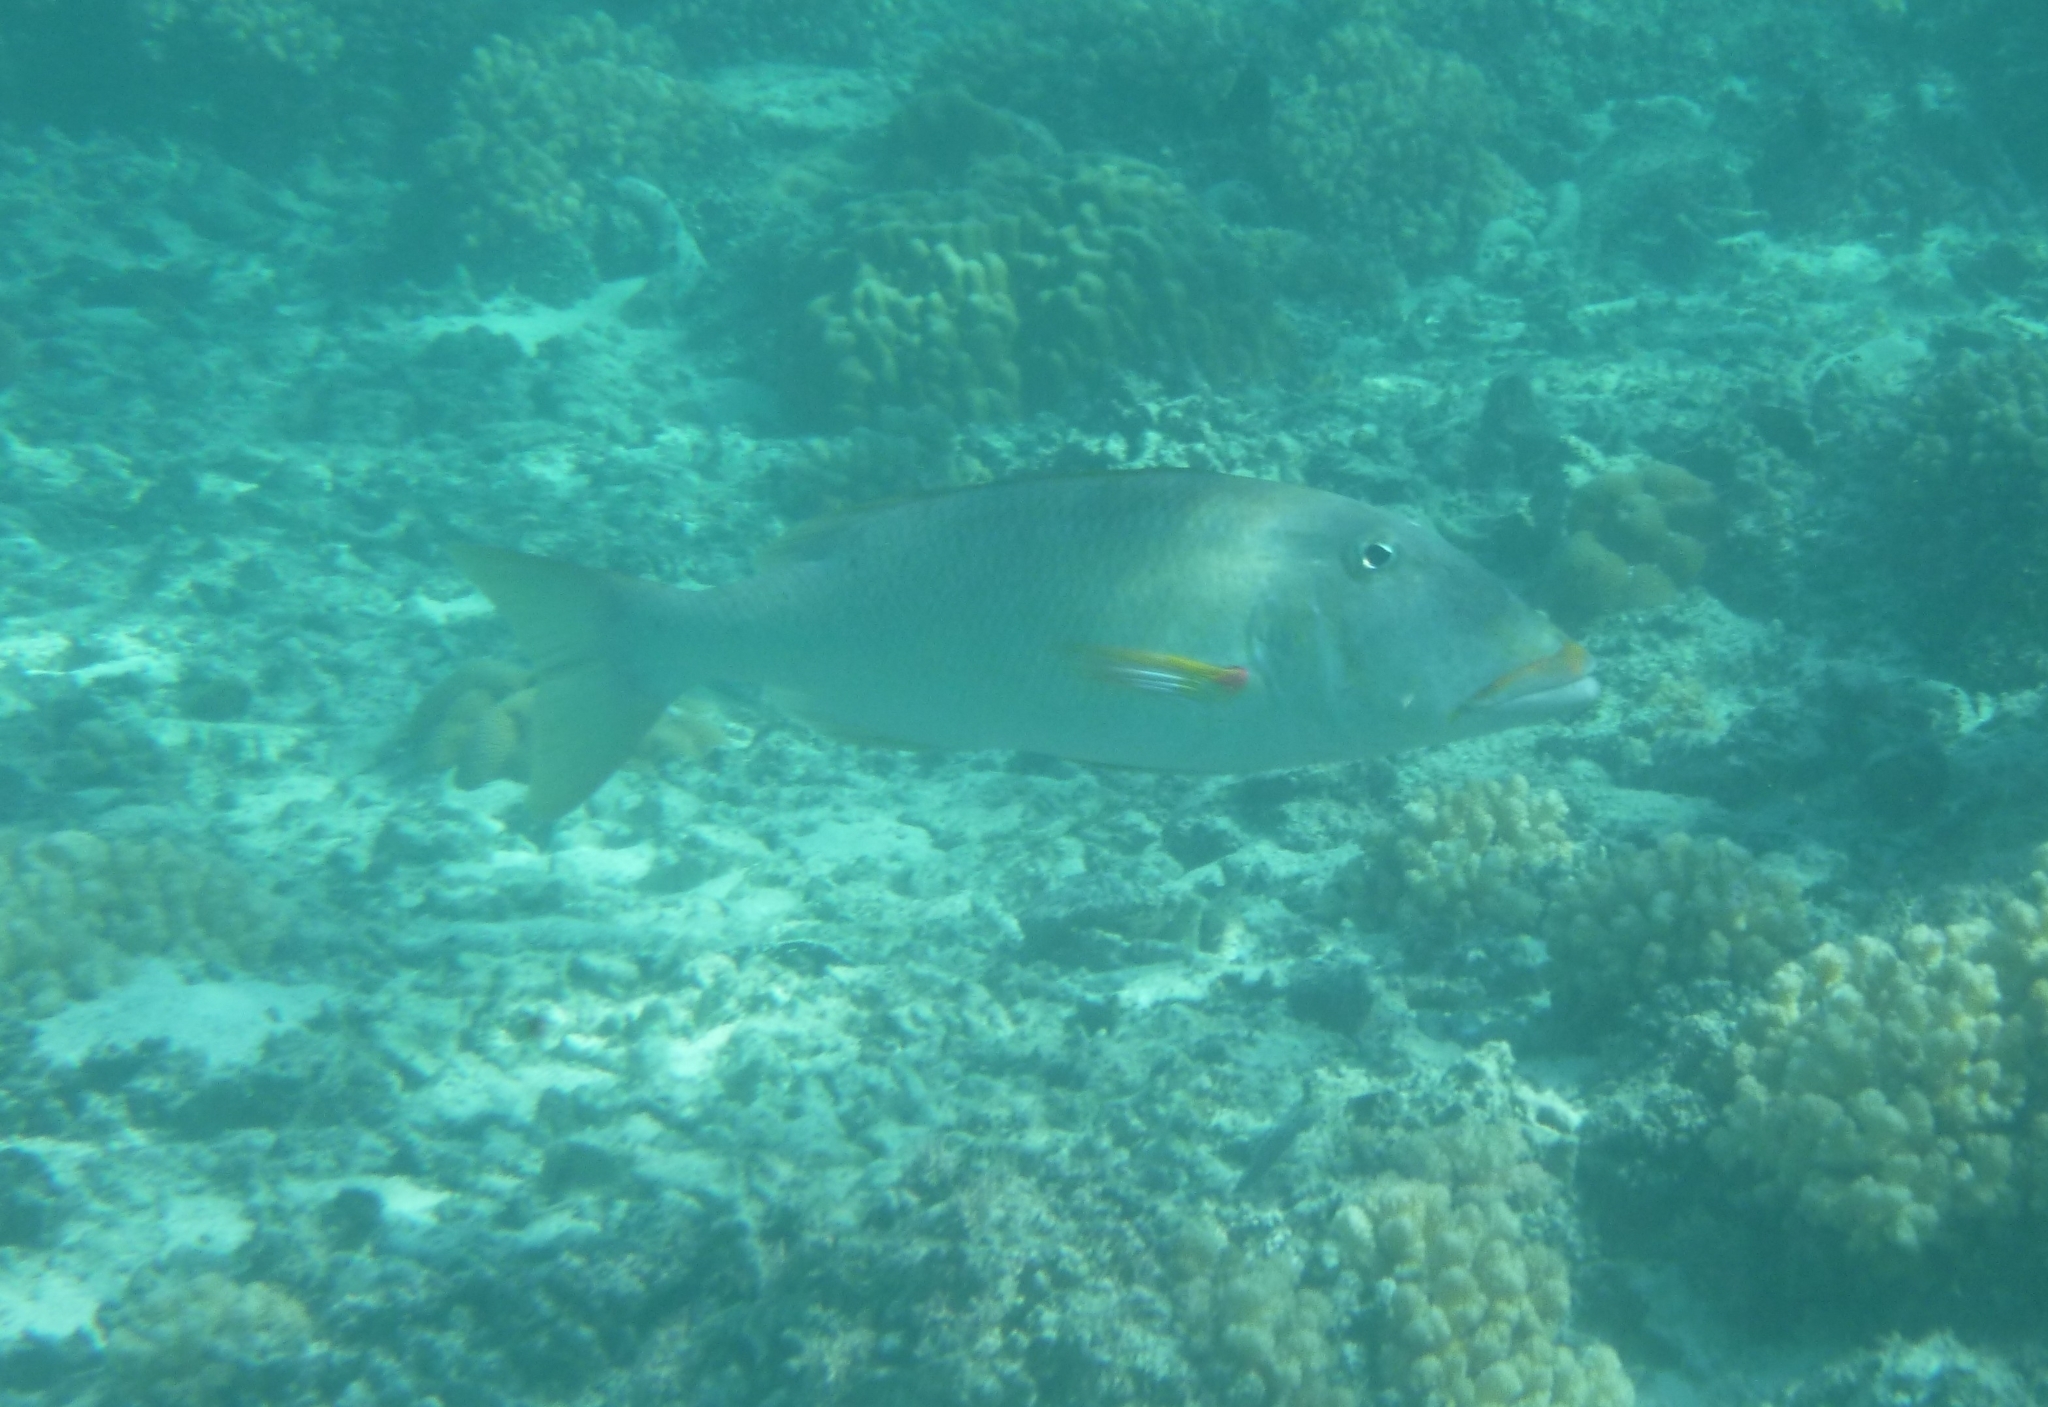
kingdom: Animalia
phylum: Chordata
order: Perciformes
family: Lethrinidae
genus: Lethrinus
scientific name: Lethrinus xanthochilus
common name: Yellowlip emperor
